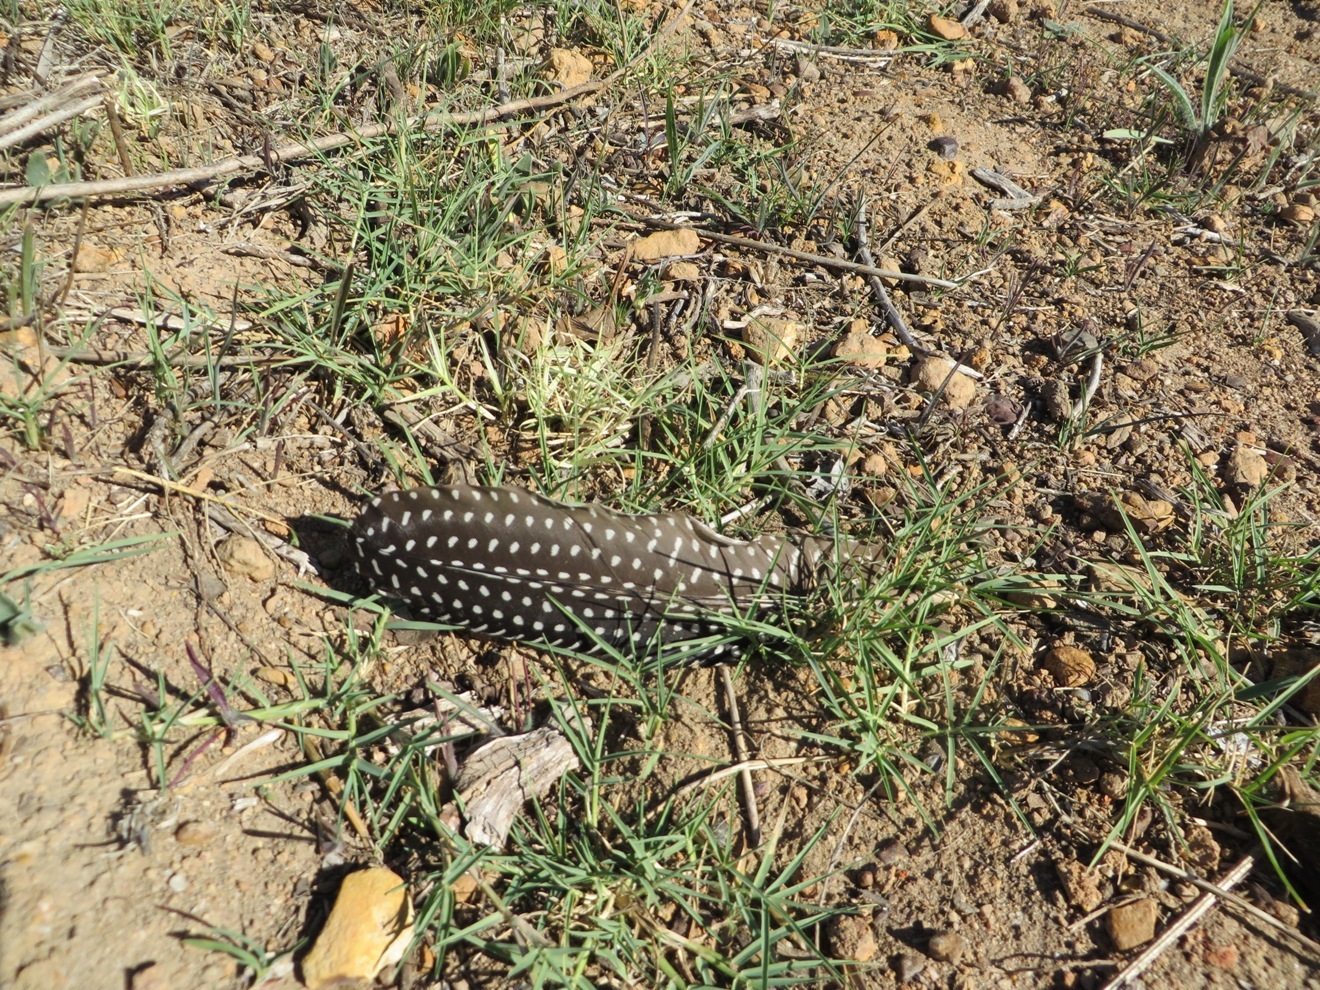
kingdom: Animalia
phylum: Chordata
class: Aves
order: Galliformes
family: Numididae
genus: Numida
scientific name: Numida meleagris
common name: Helmeted guineafowl
